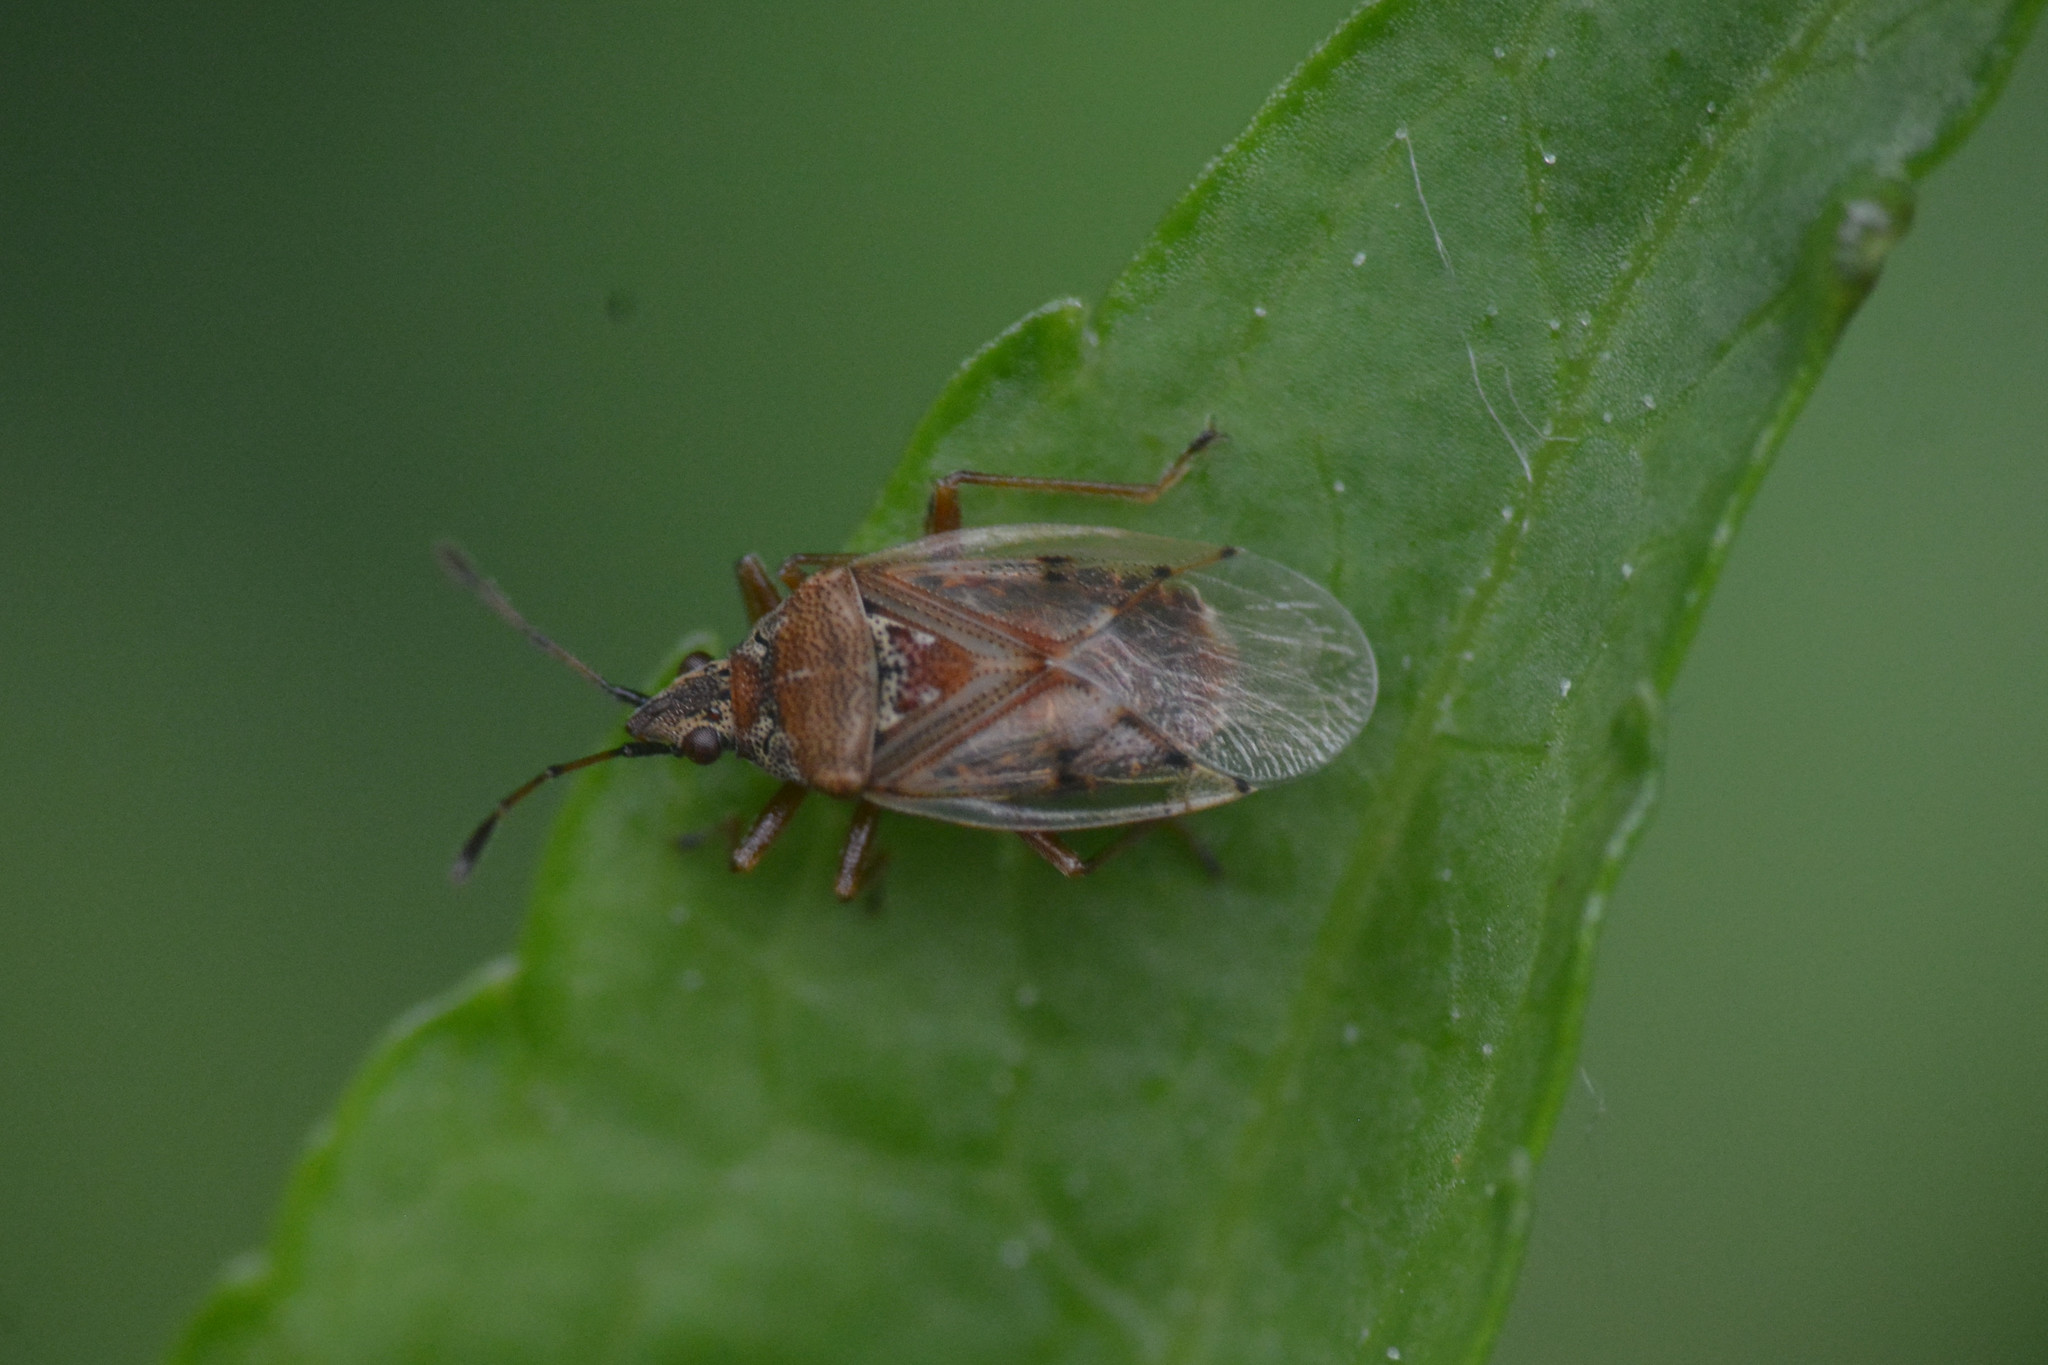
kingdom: Animalia
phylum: Arthropoda
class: Insecta
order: Hemiptera
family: Lygaeidae
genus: Kleidocerys
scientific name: Kleidocerys resedae
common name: Birch catkin bug
